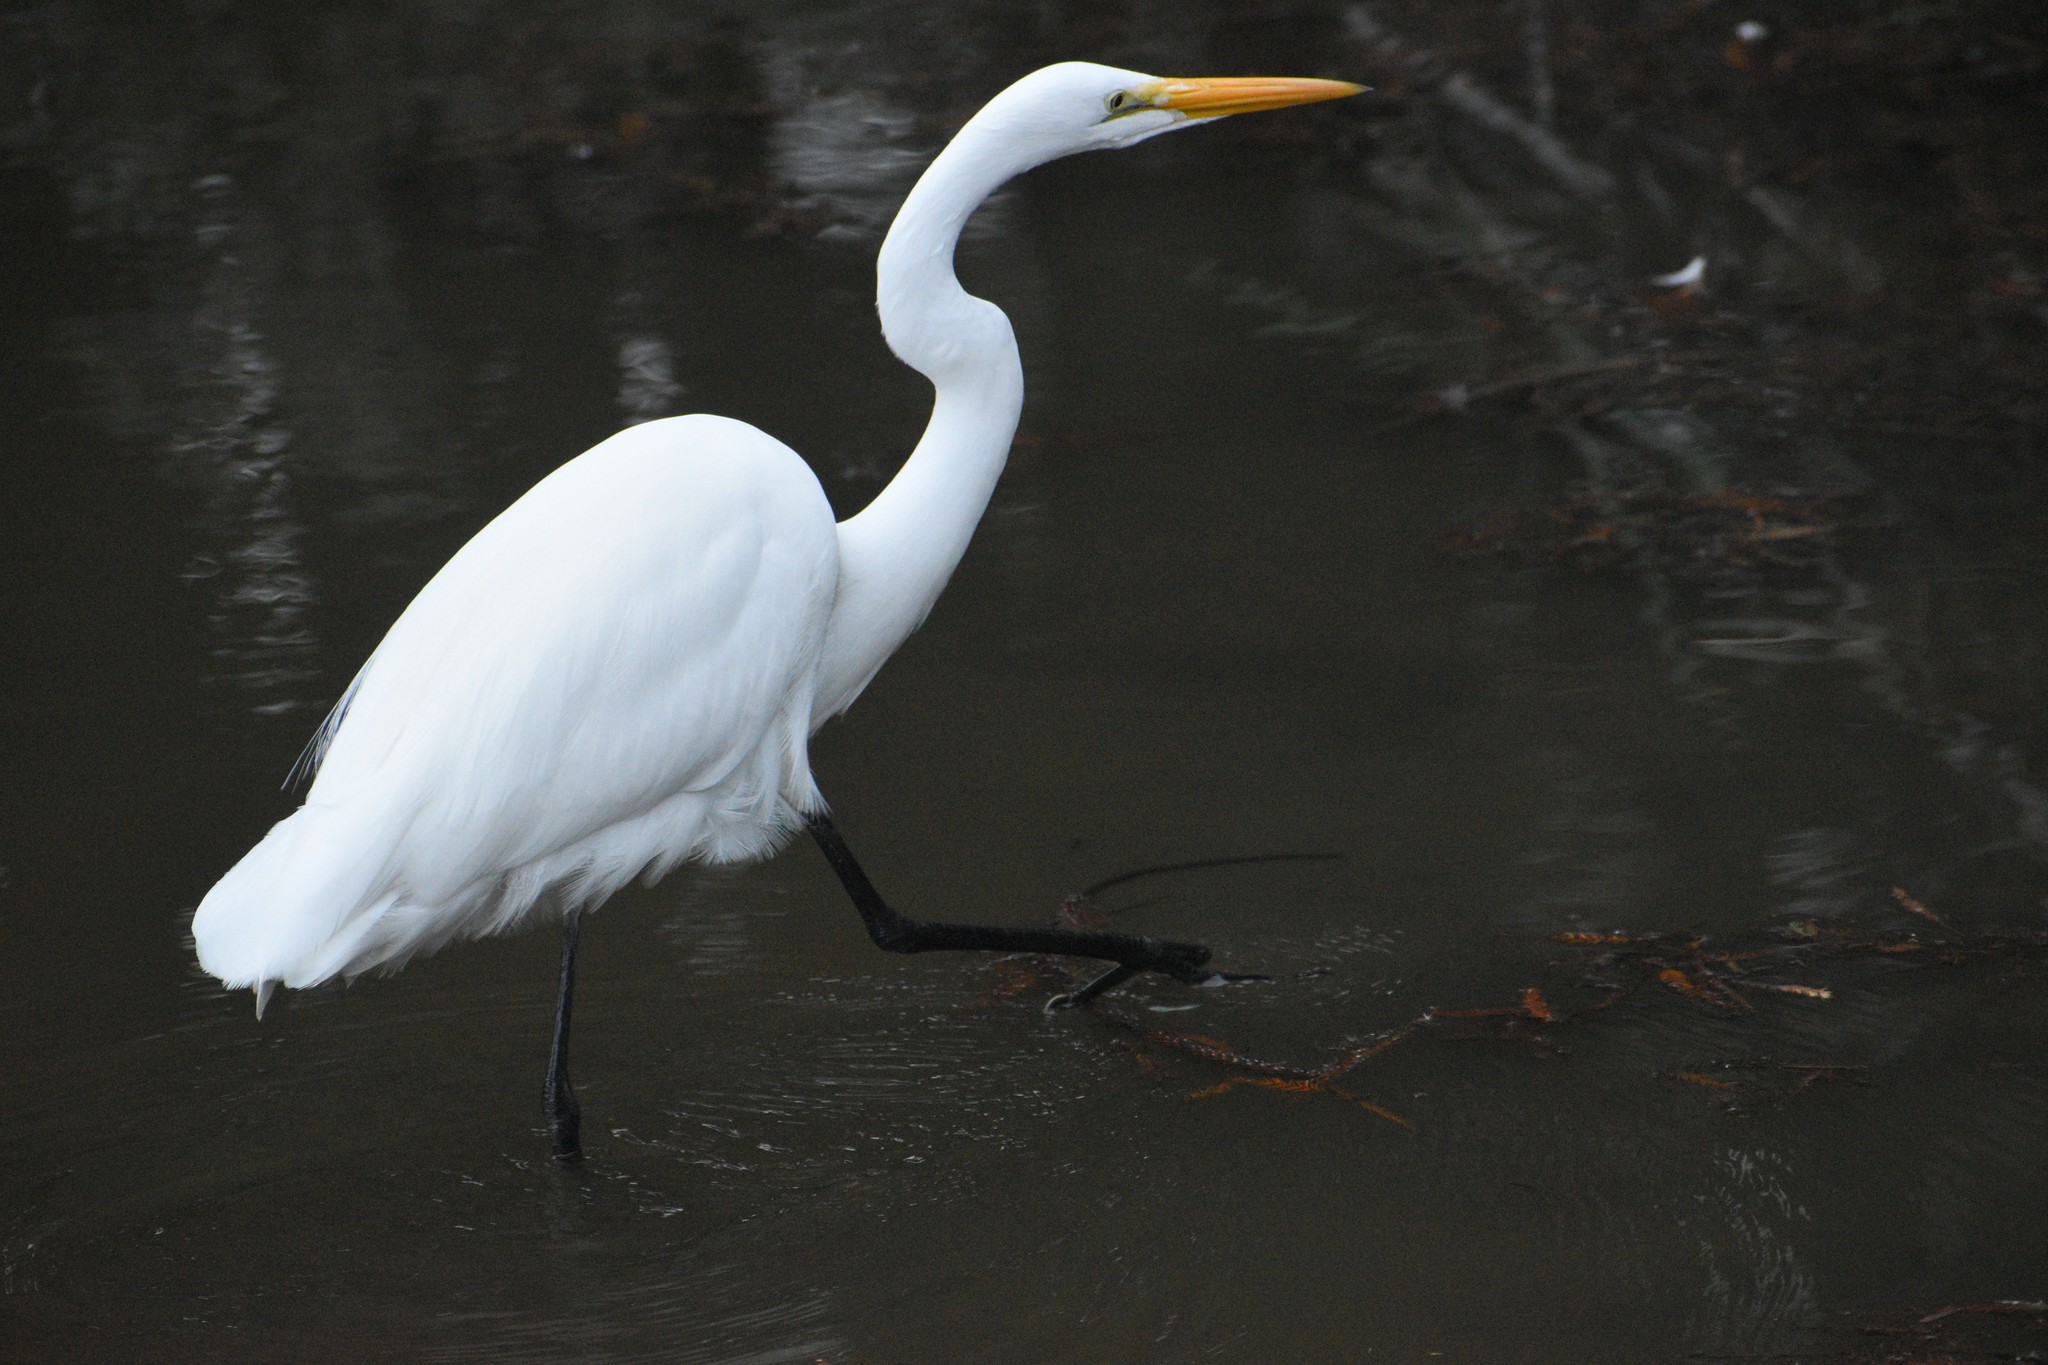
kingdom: Animalia
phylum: Chordata
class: Aves
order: Pelecaniformes
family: Ardeidae
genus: Ardea
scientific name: Ardea alba
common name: Great egret
